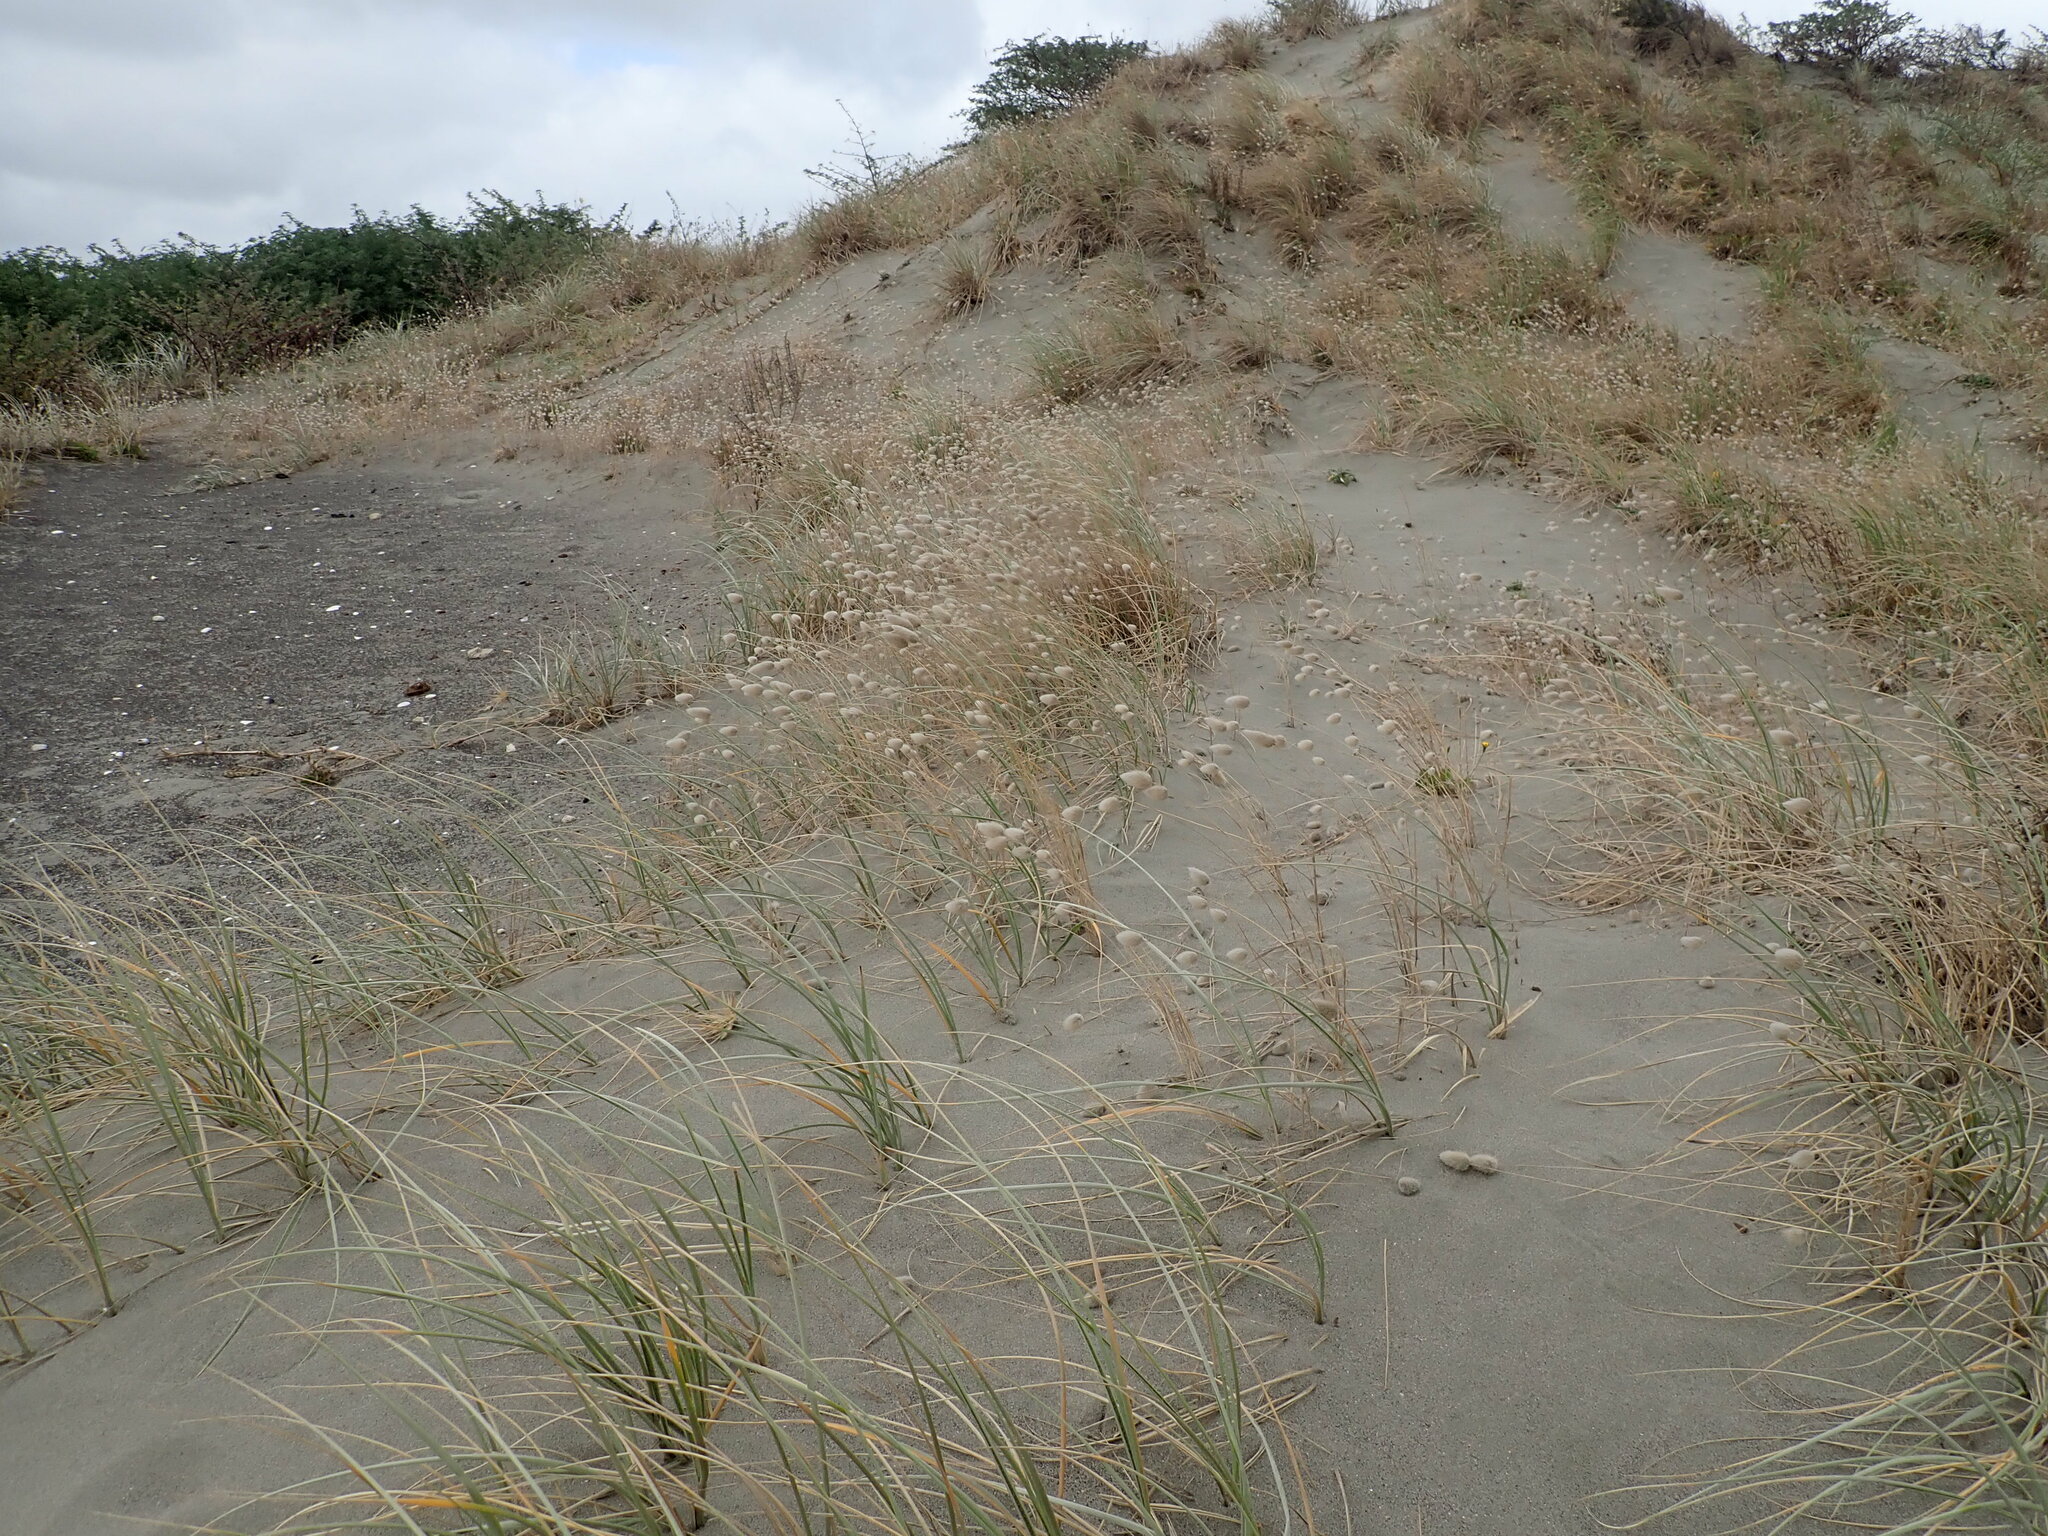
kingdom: Plantae
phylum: Tracheophyta
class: Liliopsida
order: Poales
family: Poaceae
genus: Lagurus
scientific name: Lagurus ovatus
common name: Hare's-tail
